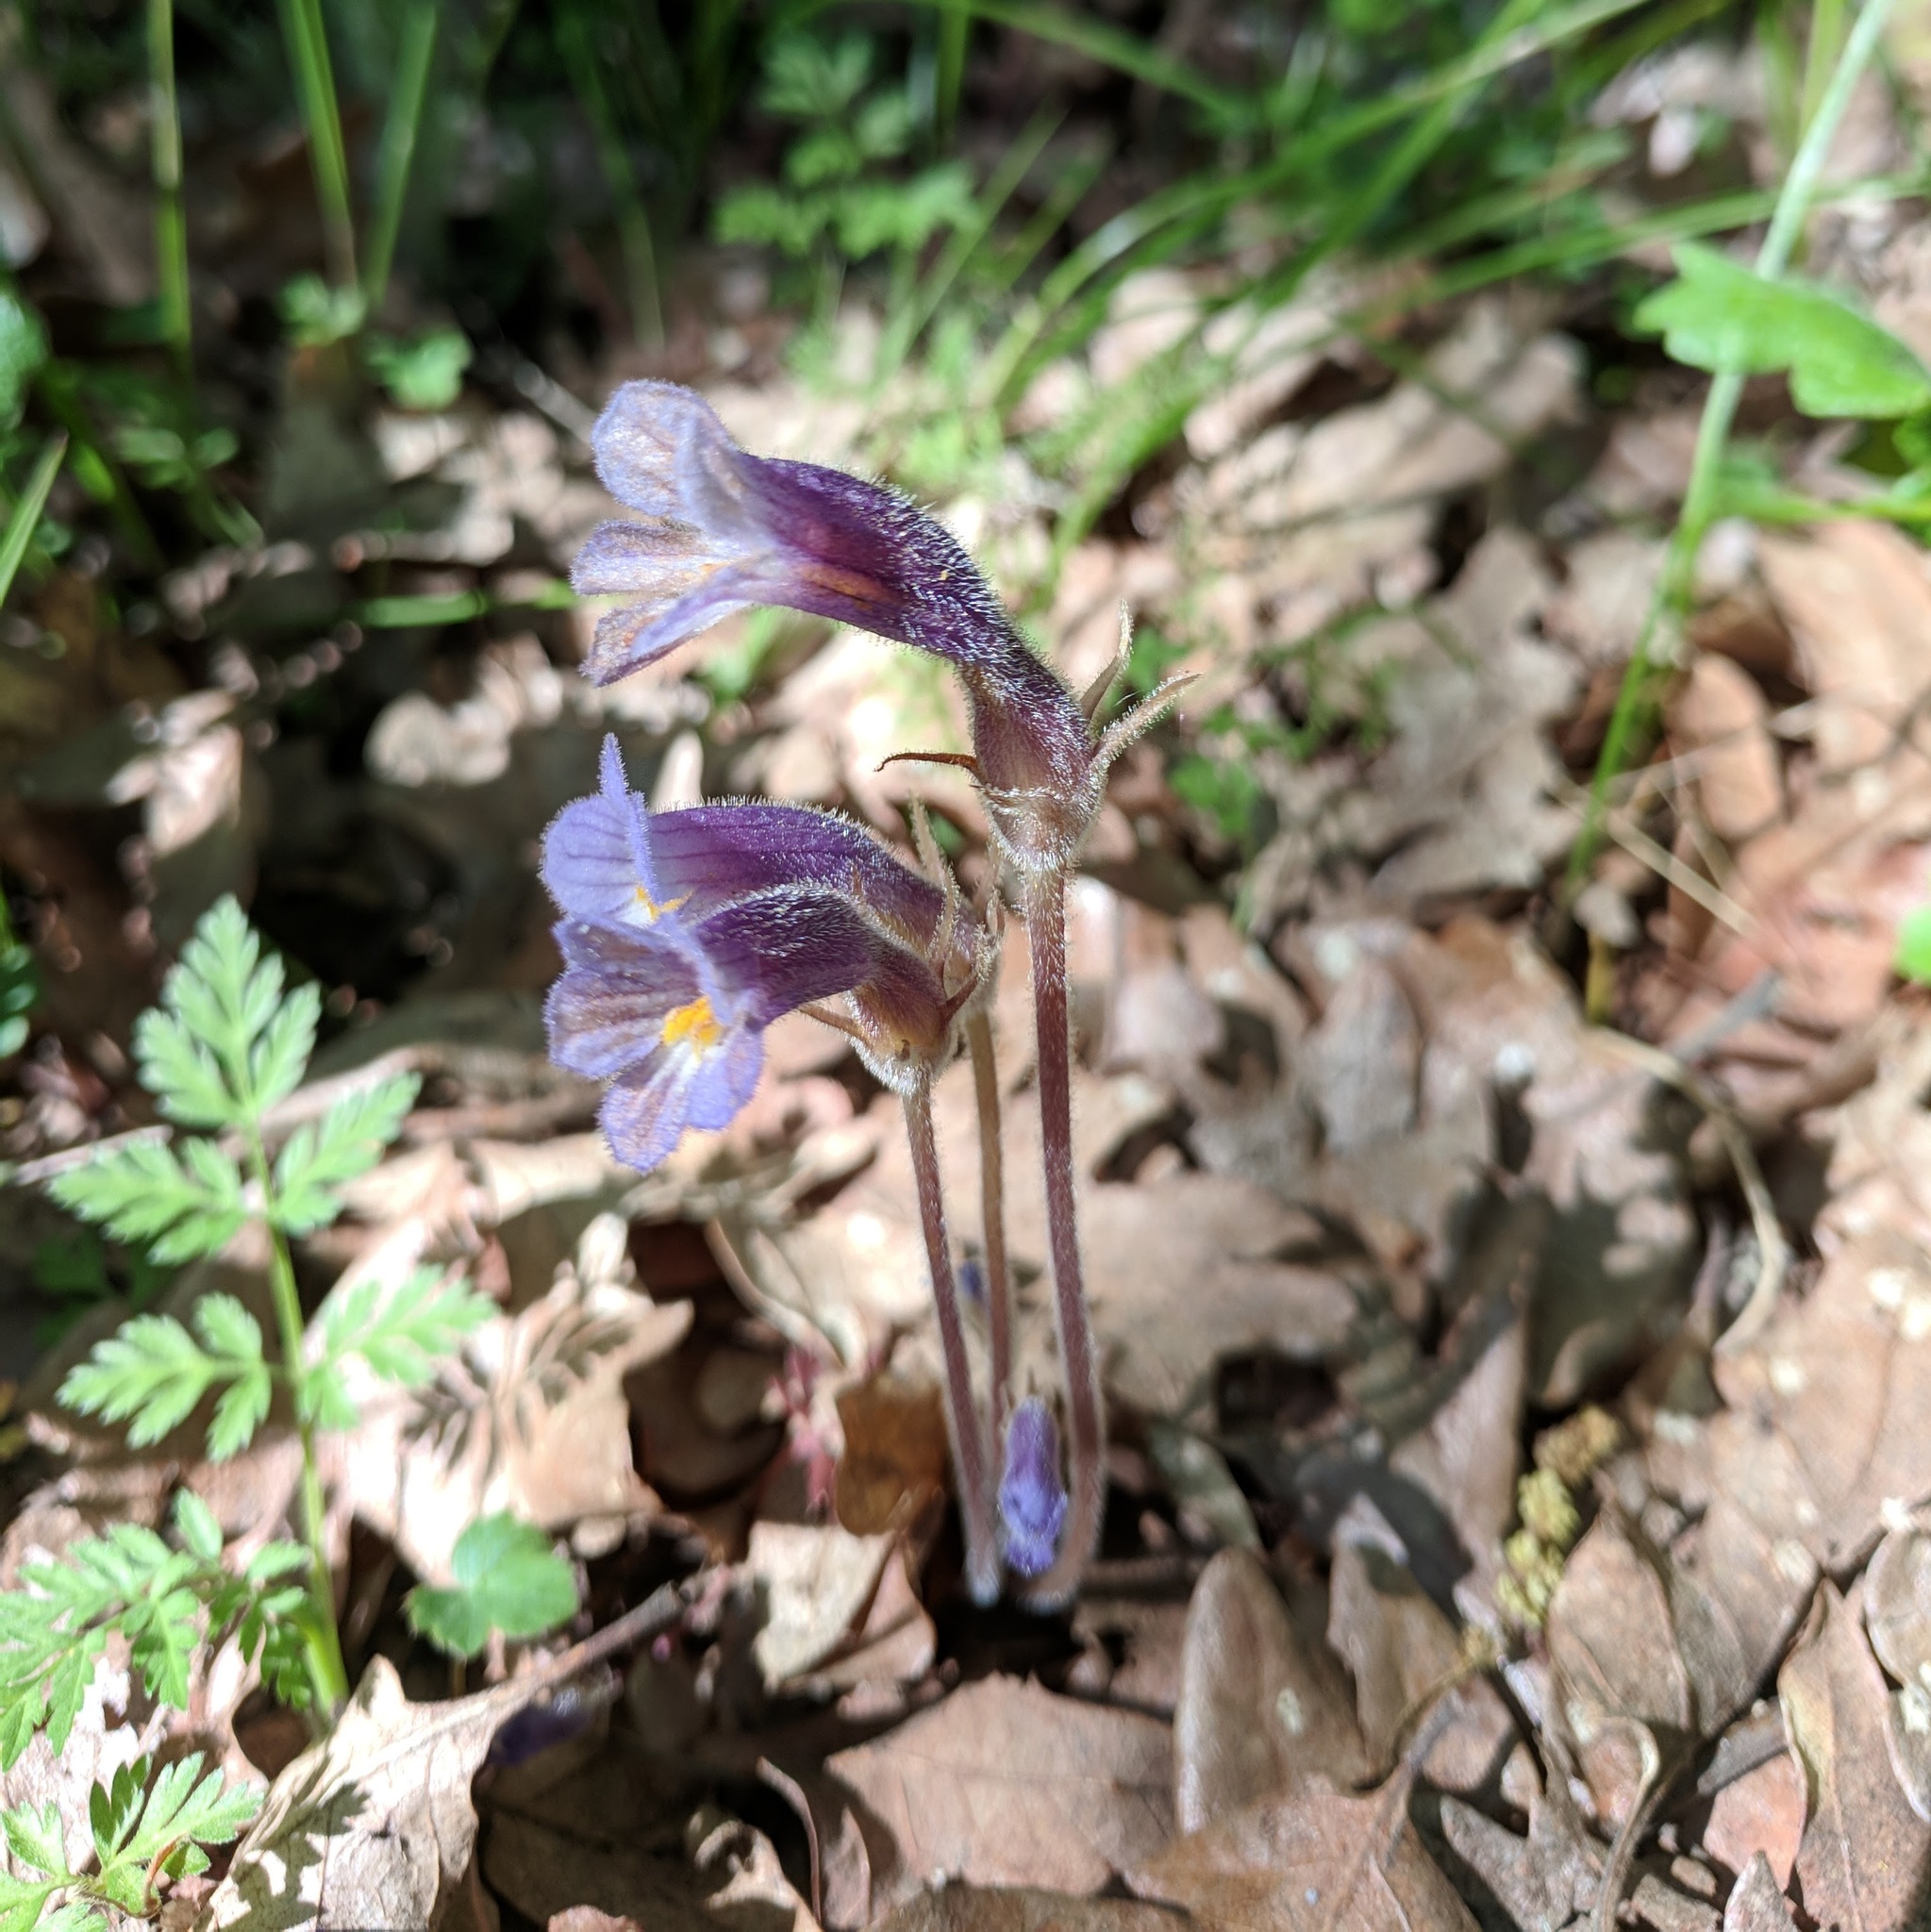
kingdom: Plantae
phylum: Tracheophyta
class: Magnoliopsida
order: Lamiales
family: Orobanchaceae
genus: Aphyllon
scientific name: Aphyllon uniflorum
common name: One-flowered broomrape
